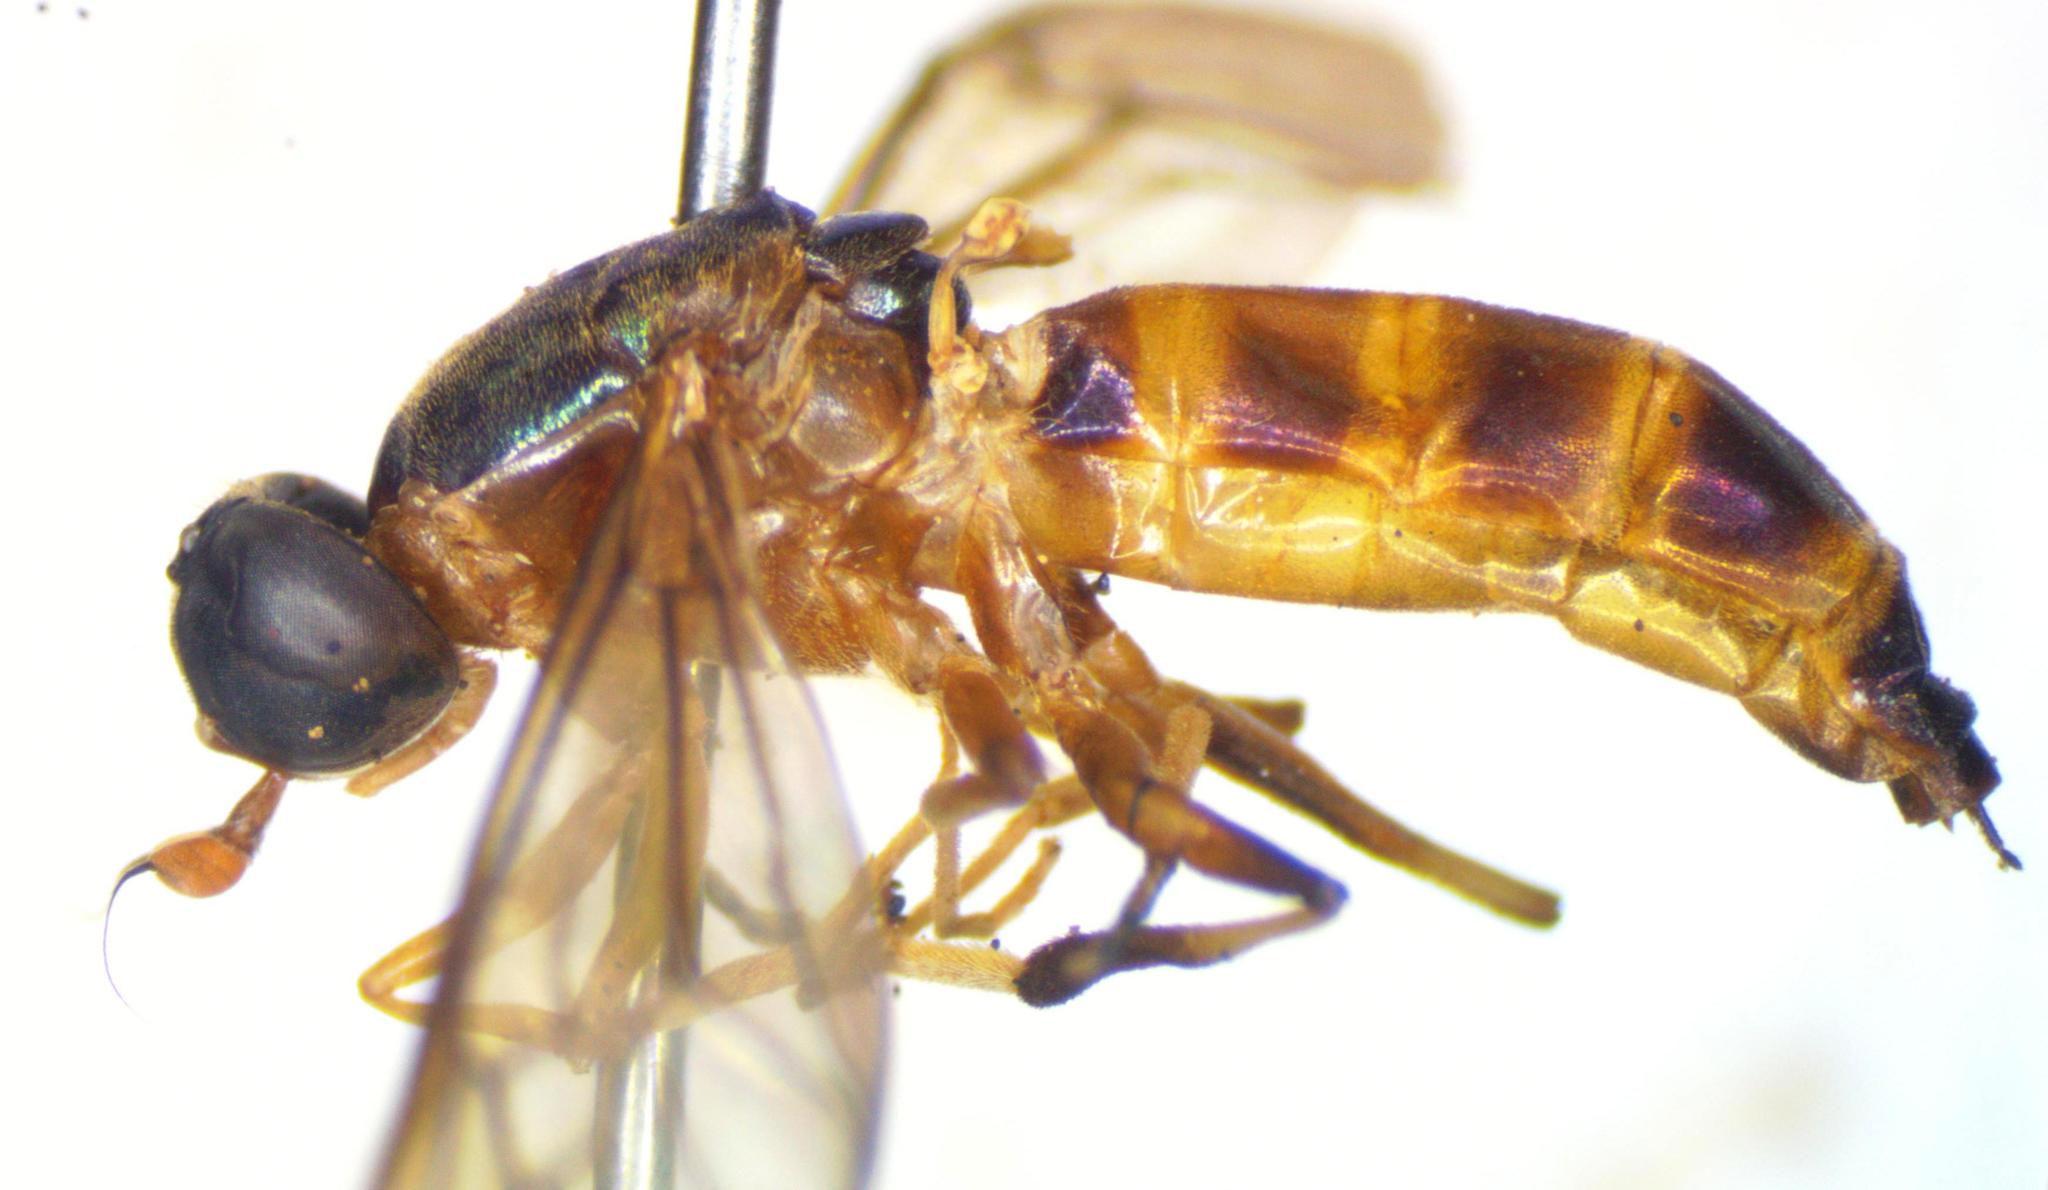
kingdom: Animalia
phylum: Arthropoda
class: Insecta
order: Diptera
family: Stratiomyidae
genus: Merosargus
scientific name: Merosargus bequaerti
